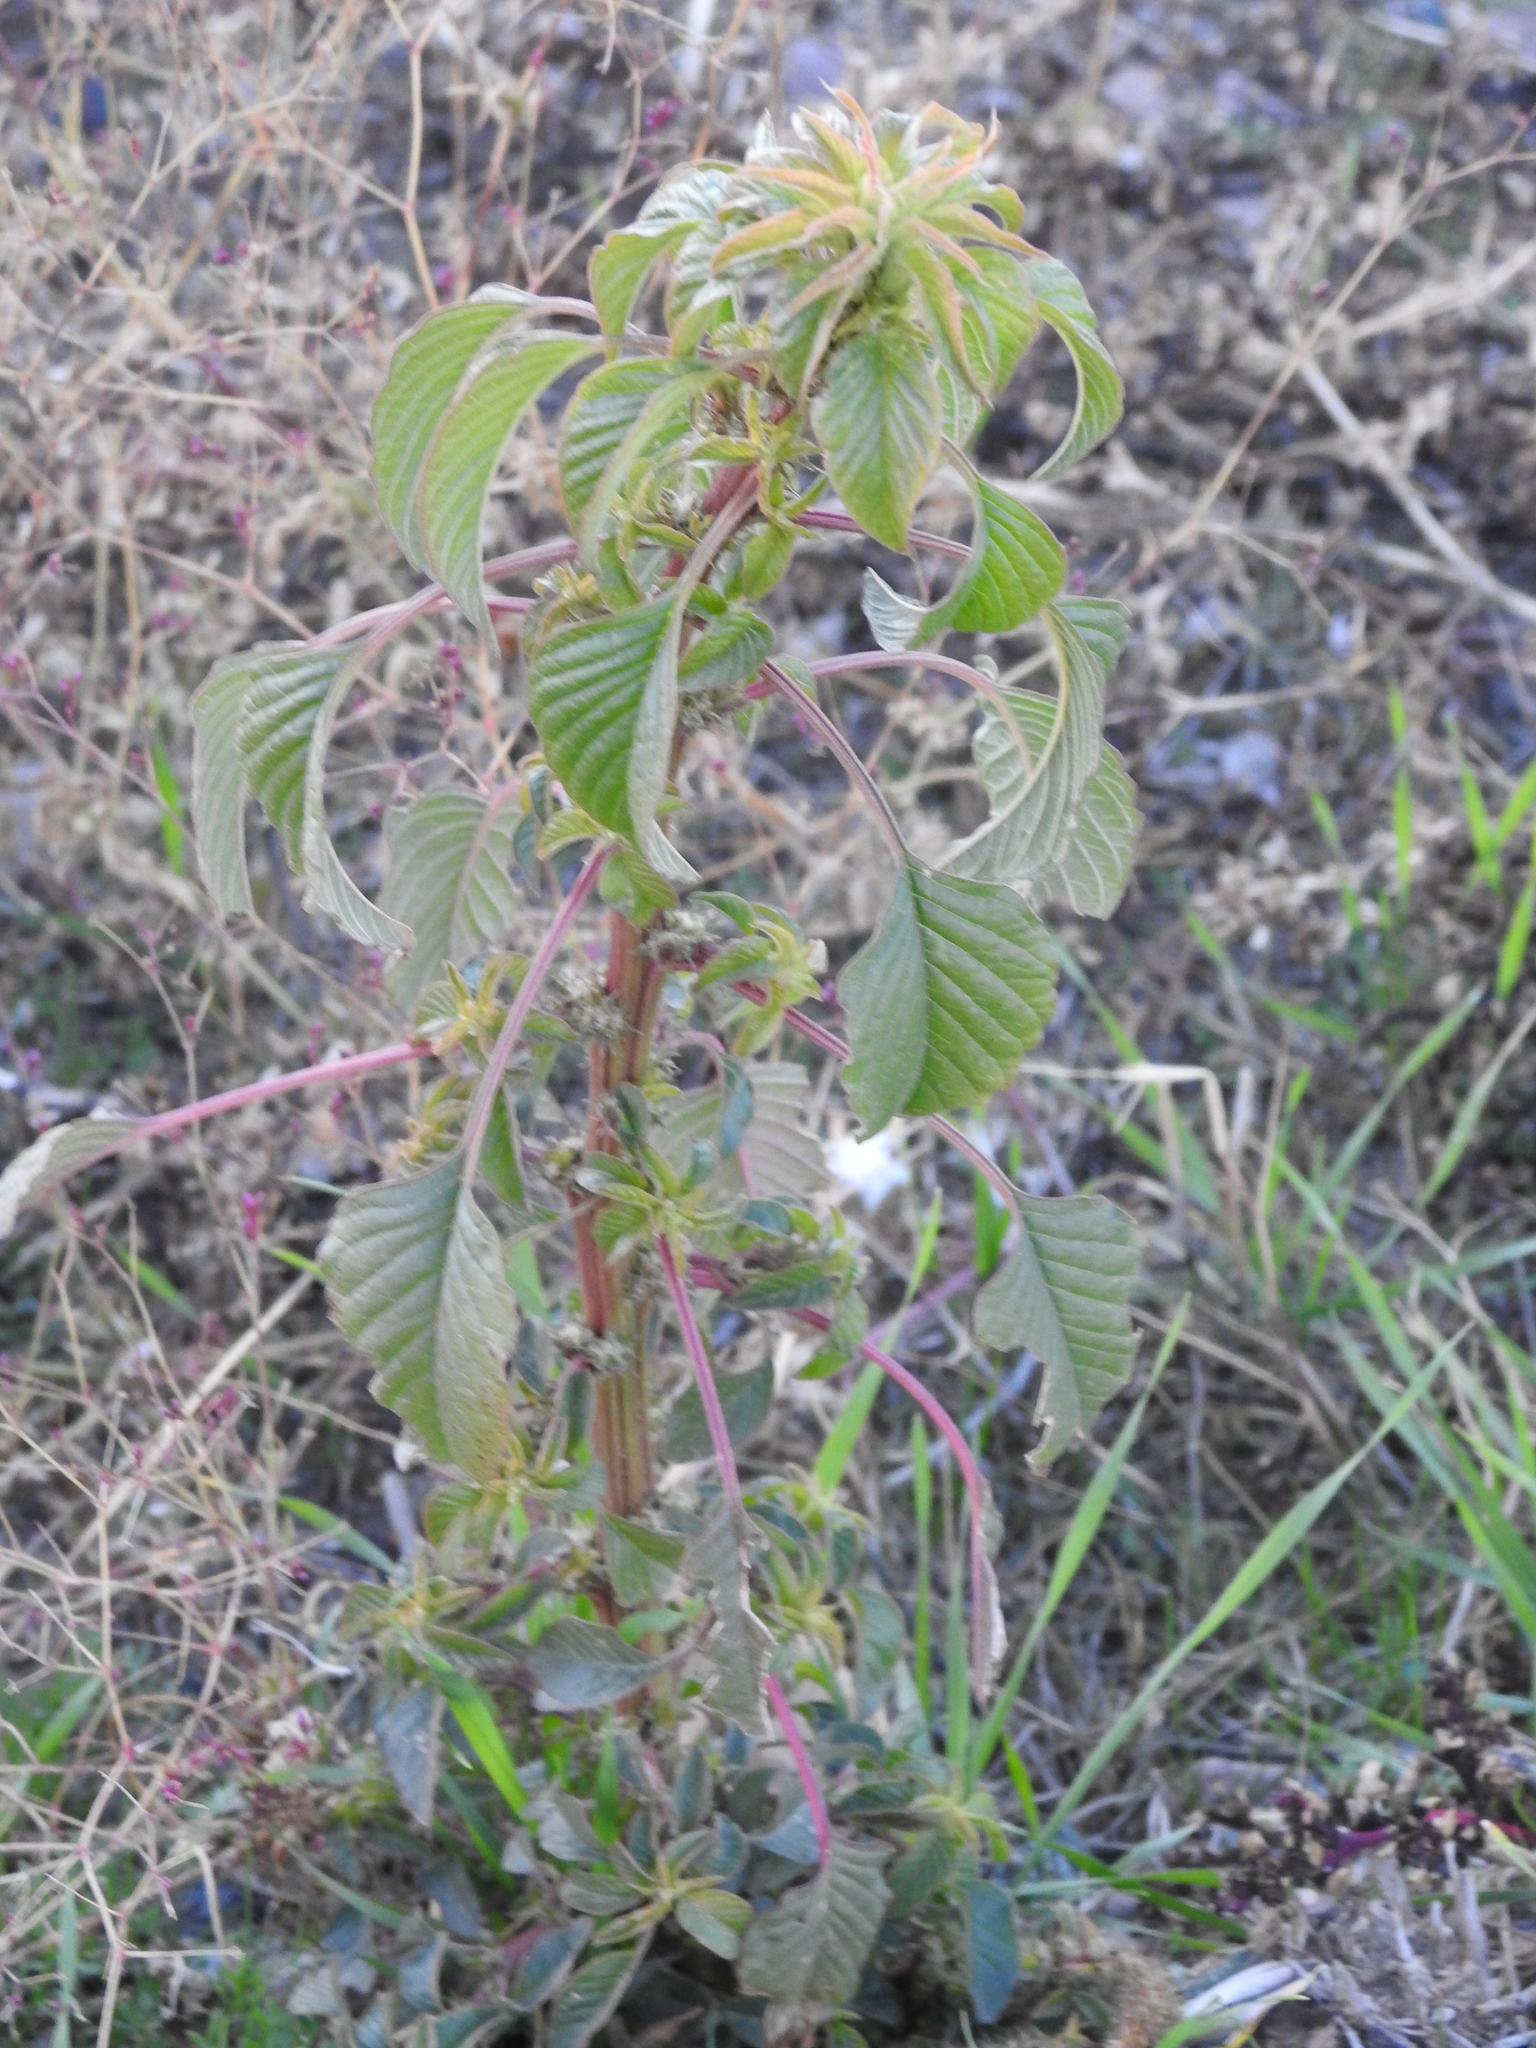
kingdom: Plantae
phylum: Tracheophyta
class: Magnoliopsida
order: Caryophyllales
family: Amaranthaceae
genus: Amaranthus
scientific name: Amaranthus palmeri
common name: Dioecious amaranth
